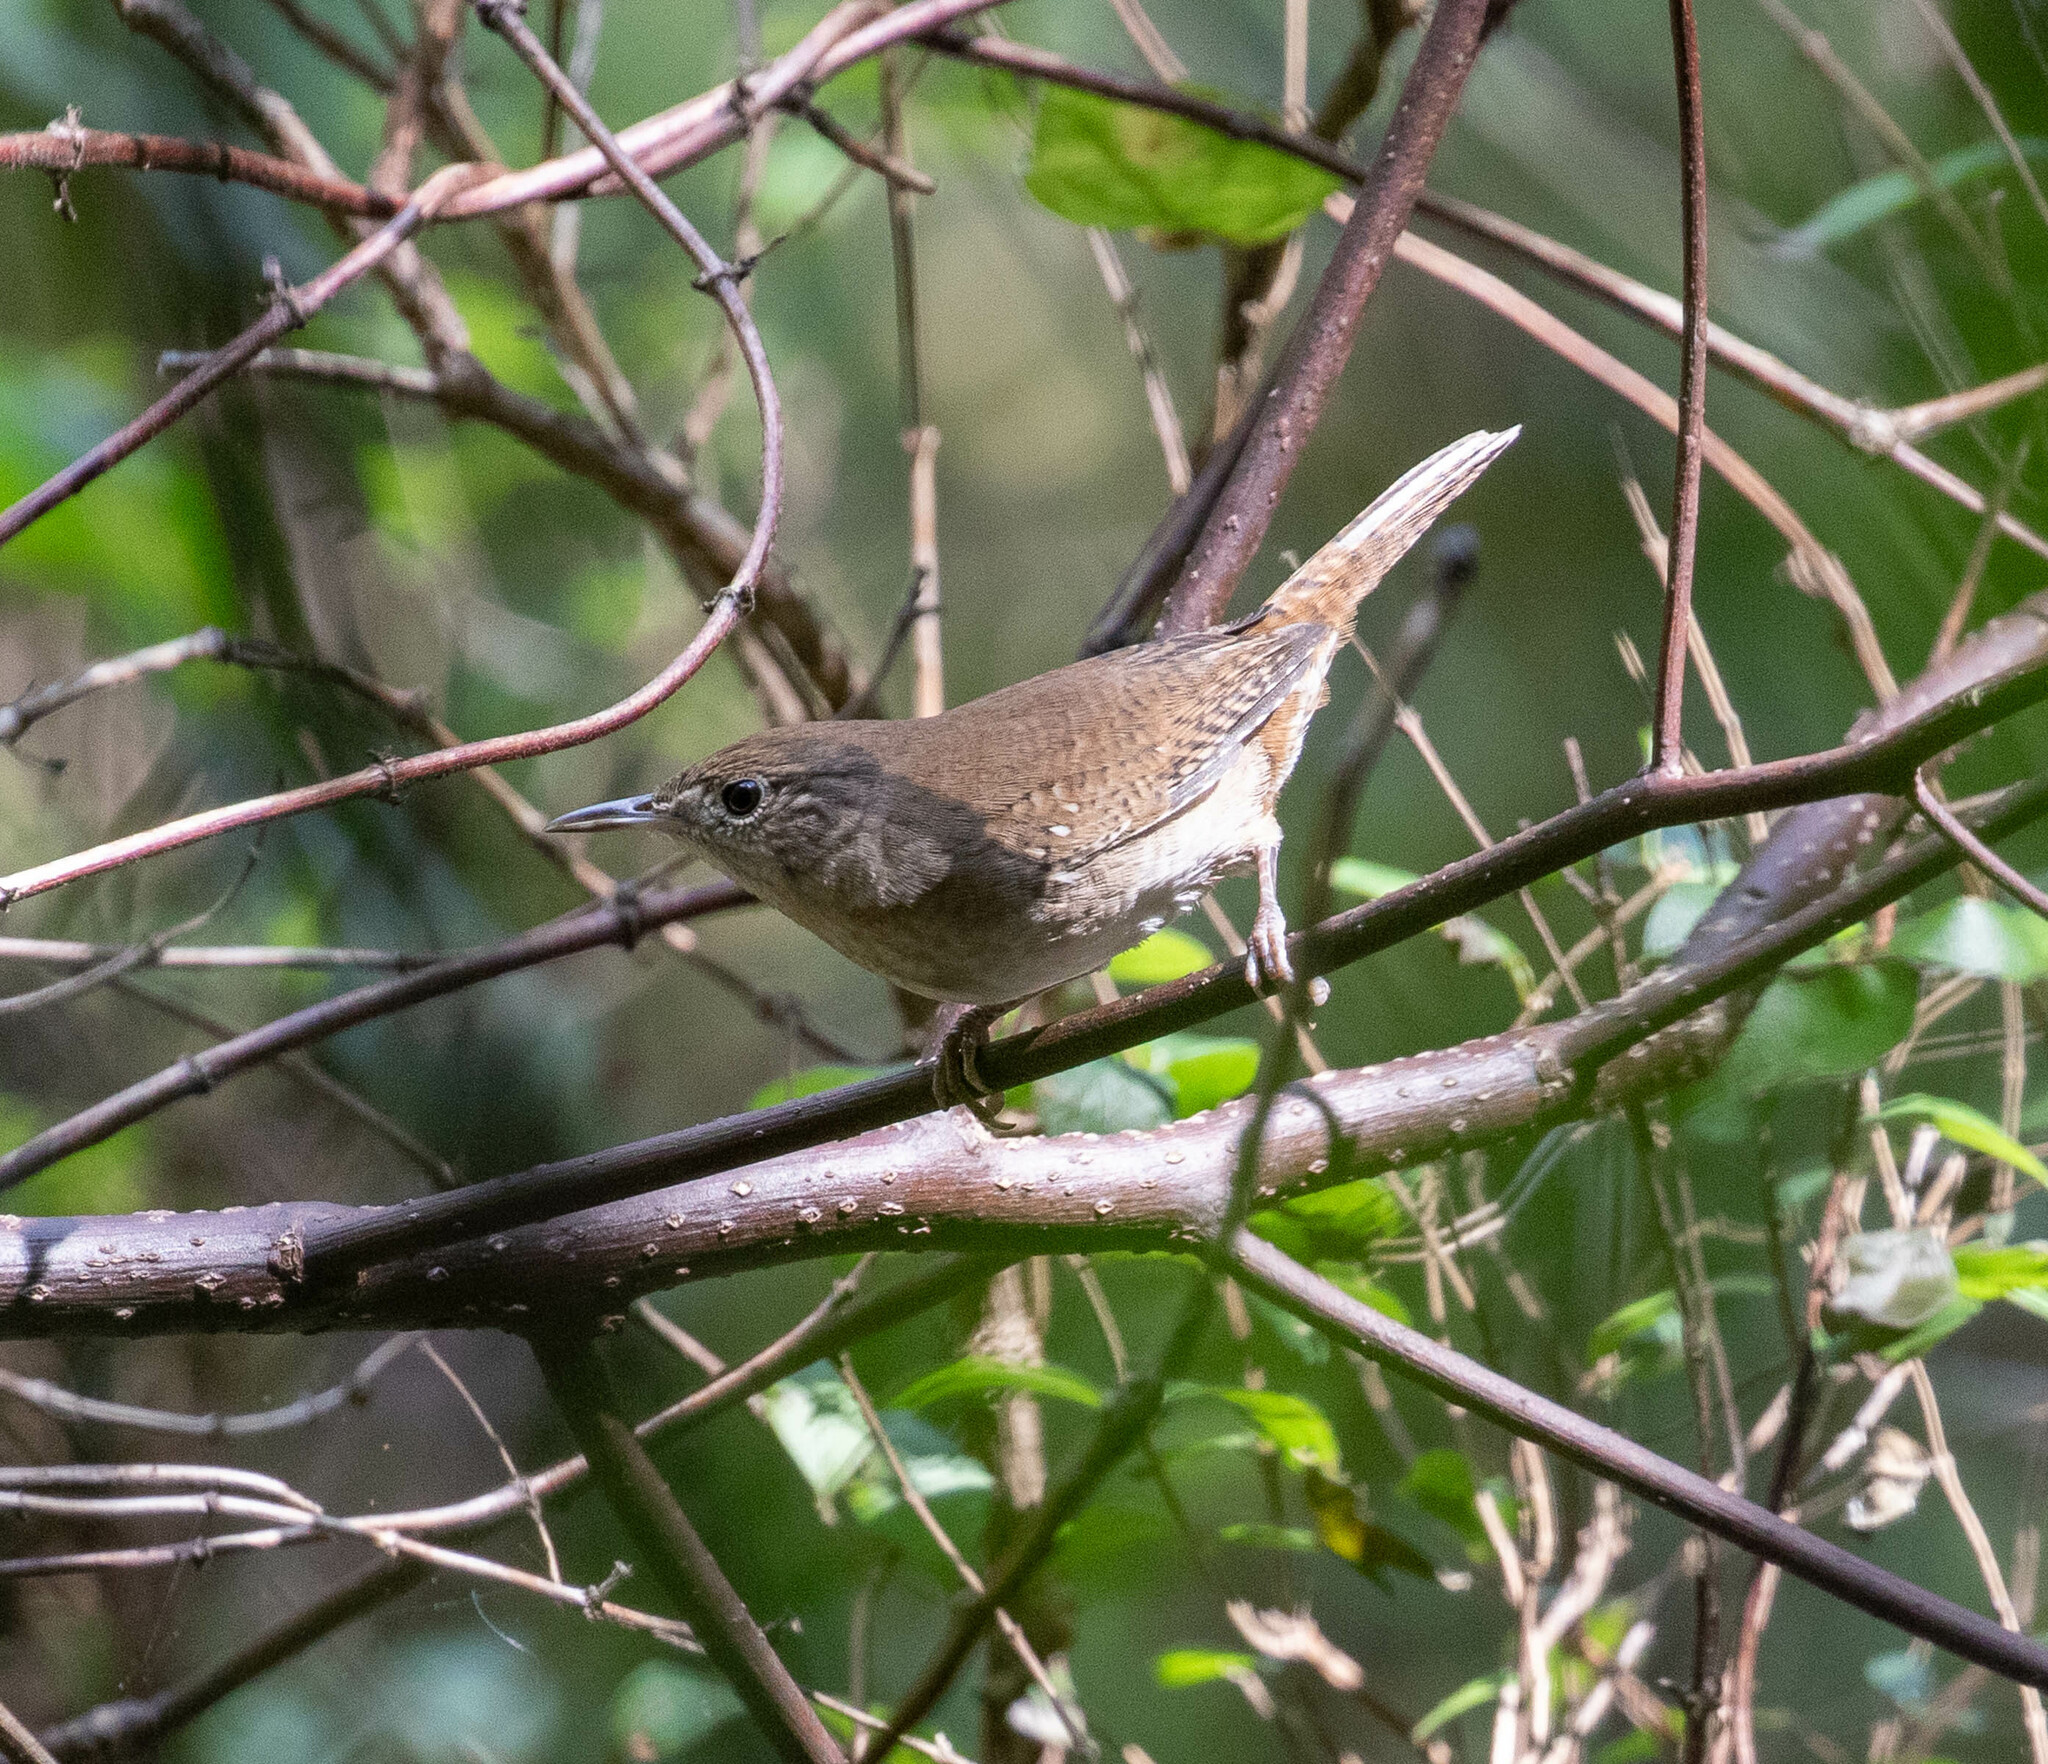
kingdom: Animalia
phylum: Chordata
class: Aves
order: Passeriformes
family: Troglodytidae
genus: Troglodytes
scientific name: Troglodytes aedon
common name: House wren
